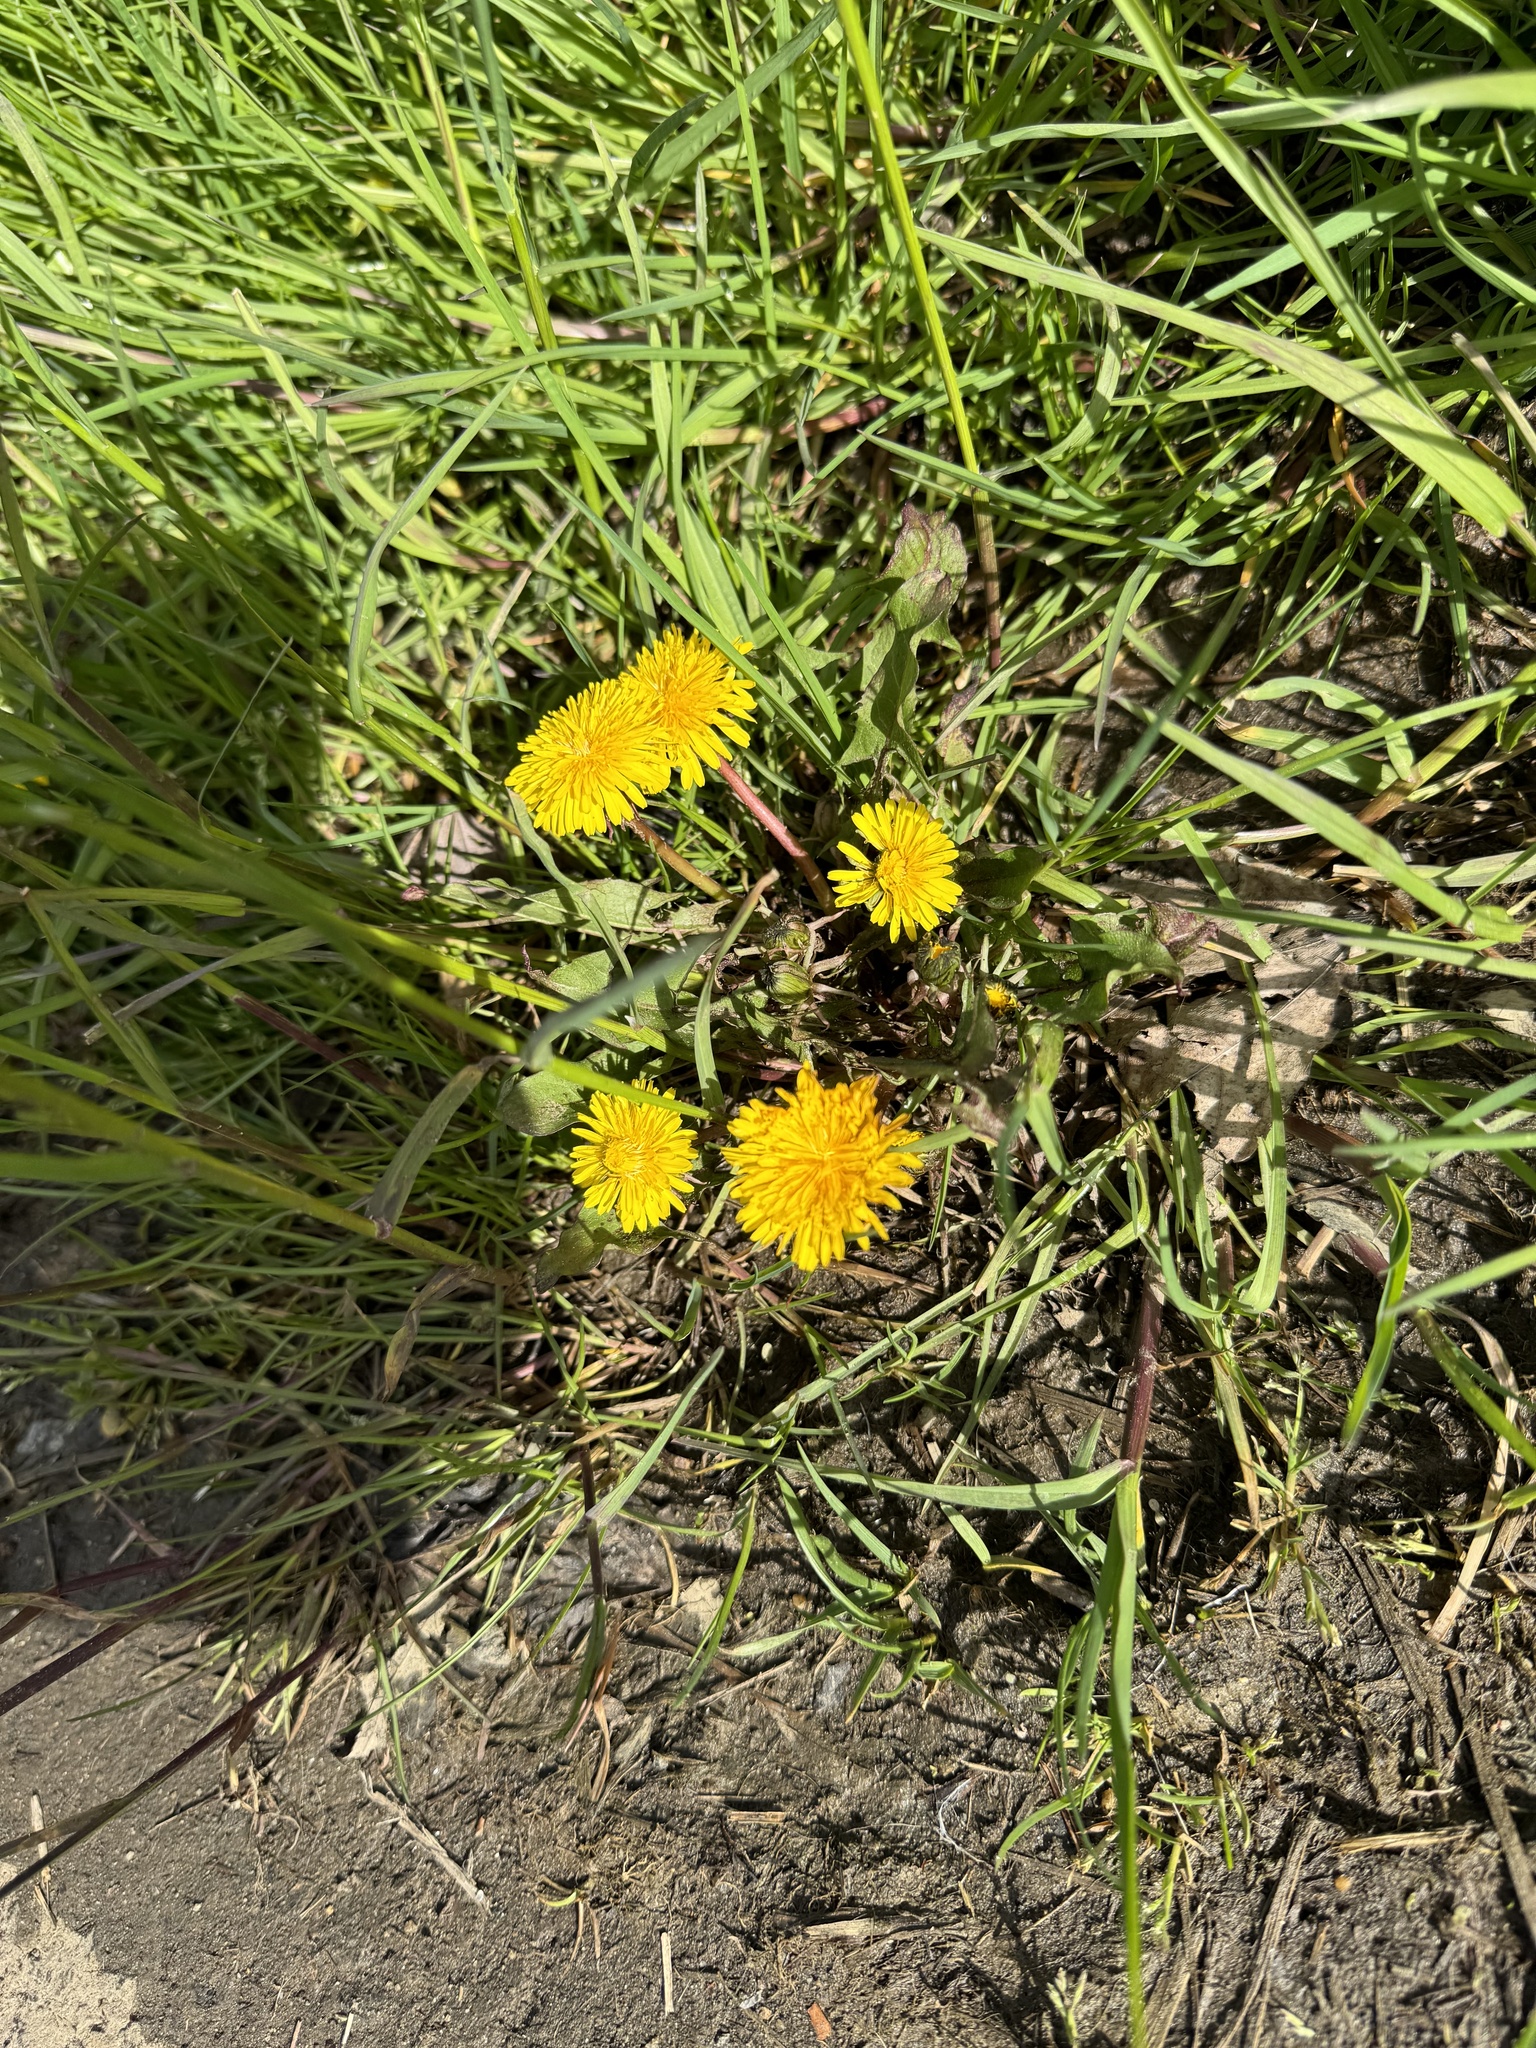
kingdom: Plantae
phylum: Tracheophyta
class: Magnoliopsida
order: Asterales
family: Asteraceae
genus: Taraxacum
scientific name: Taraxacum officinale
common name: Common dandelion
